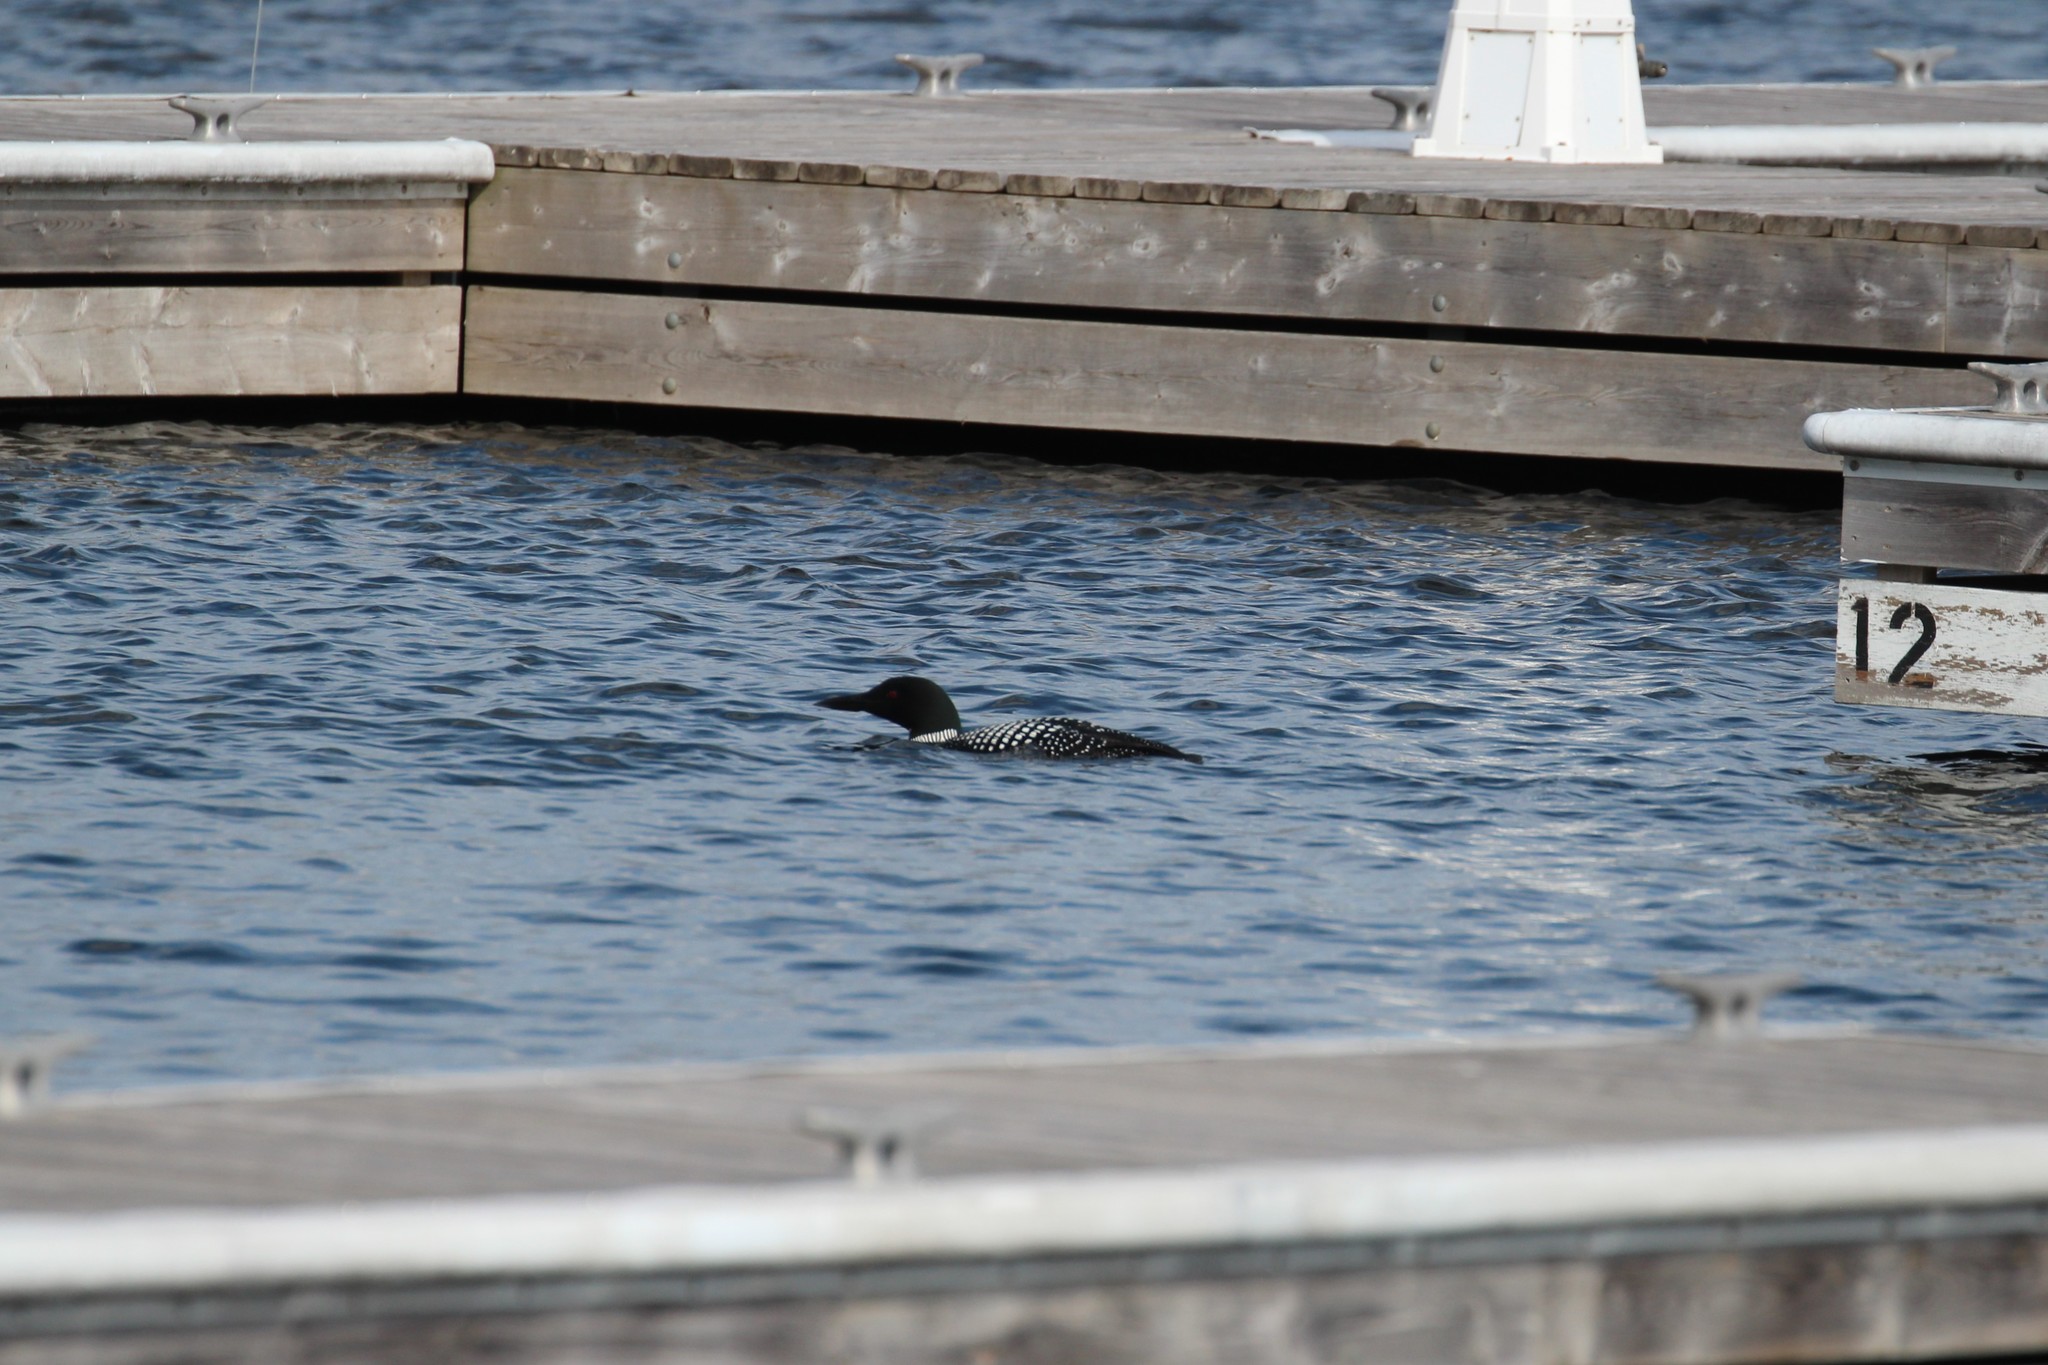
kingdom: Animalia
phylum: Chordata
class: Aves
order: Gaviiformes
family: Gaviidae
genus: Gavia
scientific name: Gavia immer
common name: Common loon
